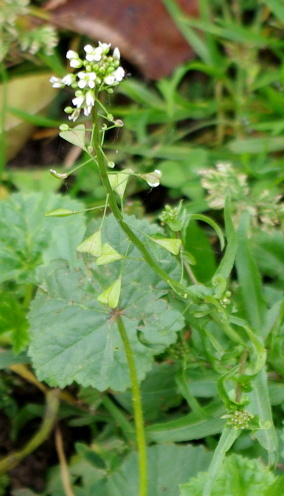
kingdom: Plantae
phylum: Tracheophyta
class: Magnoliopsida
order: Brassicales
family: Brassicaceae
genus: Capsella
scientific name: Capsella bursa-pastoris
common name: Shepherd's purse
